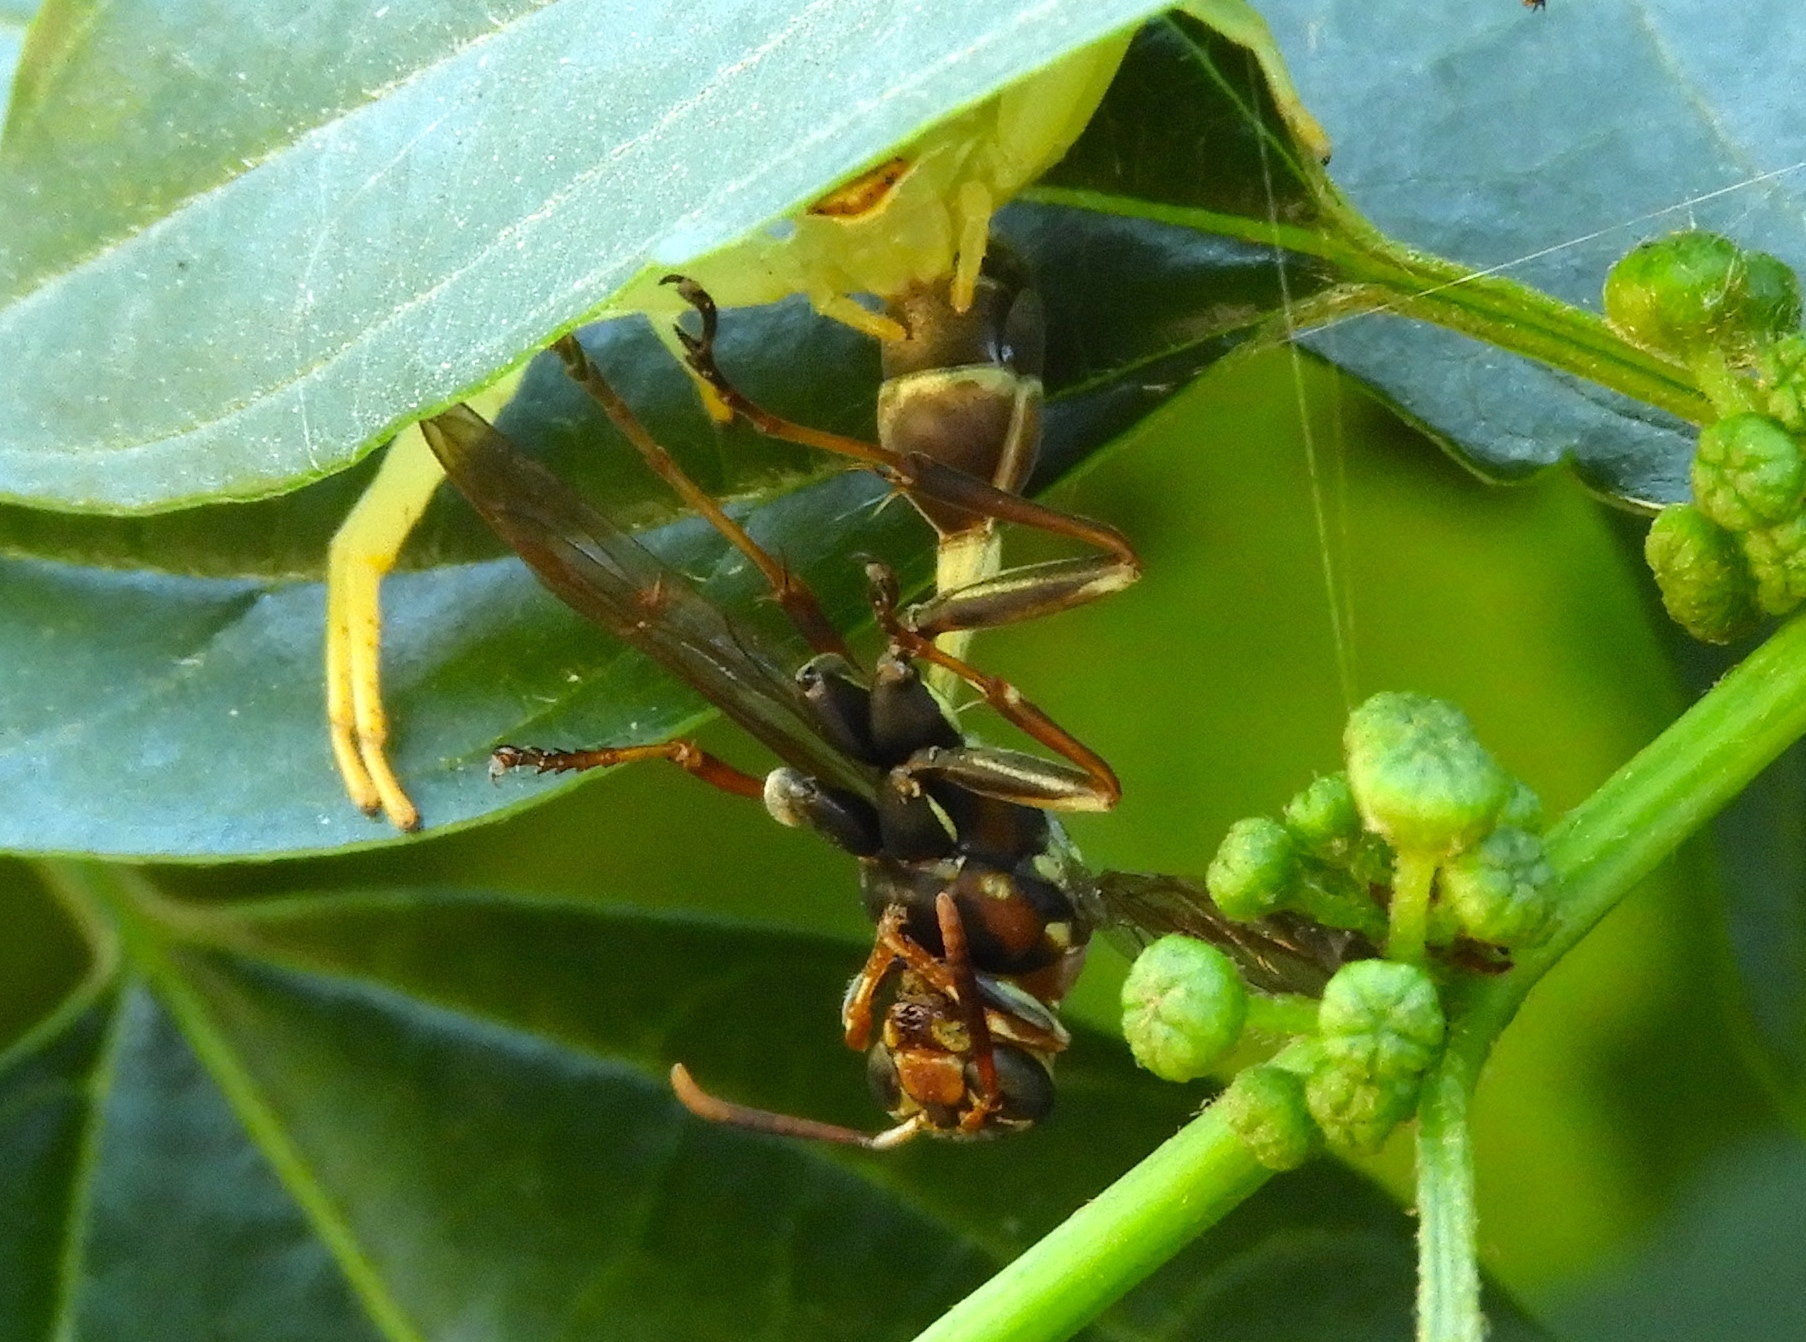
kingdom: Animalia
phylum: Arthropoda
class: Insecta
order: Hymenoptera
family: Vespidae
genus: Mischocyttarus
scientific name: Mischocyttarus
